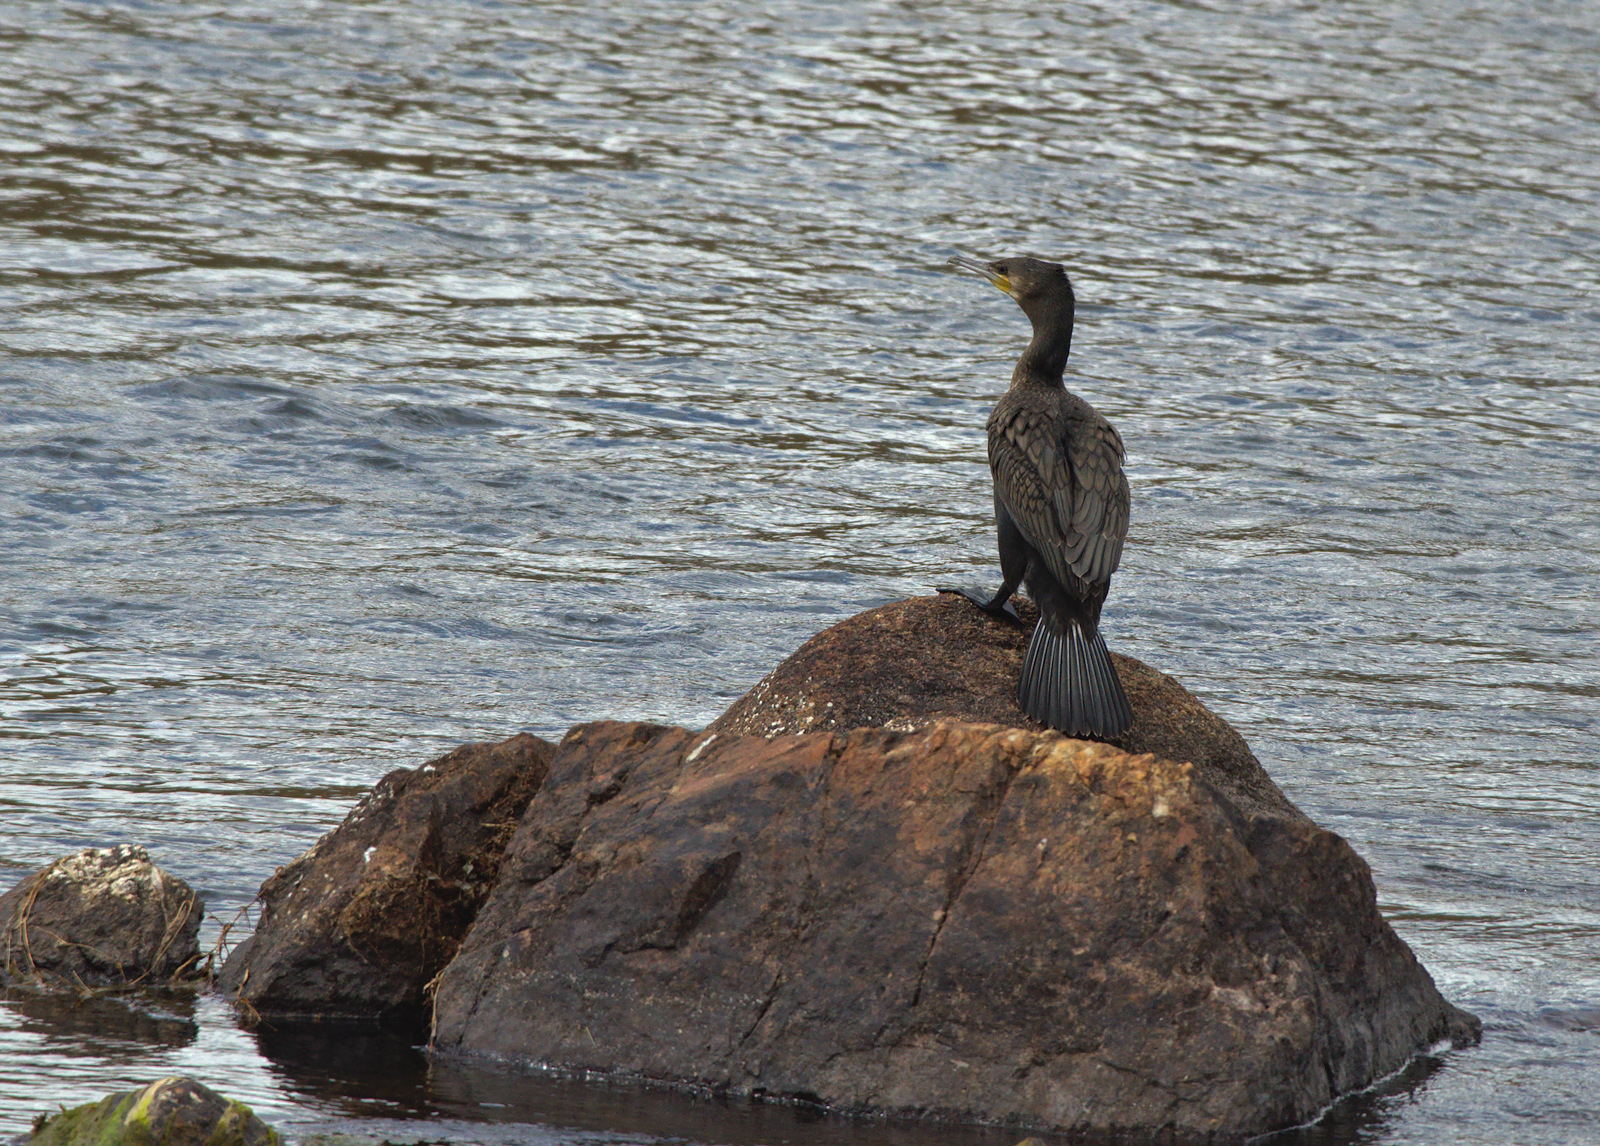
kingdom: Animalia
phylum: Chordata
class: Aves
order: Suliformes
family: Phalacrocoracidae
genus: Phalacrocorax
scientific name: Phalacrocorax carbo
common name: Great cormorant
